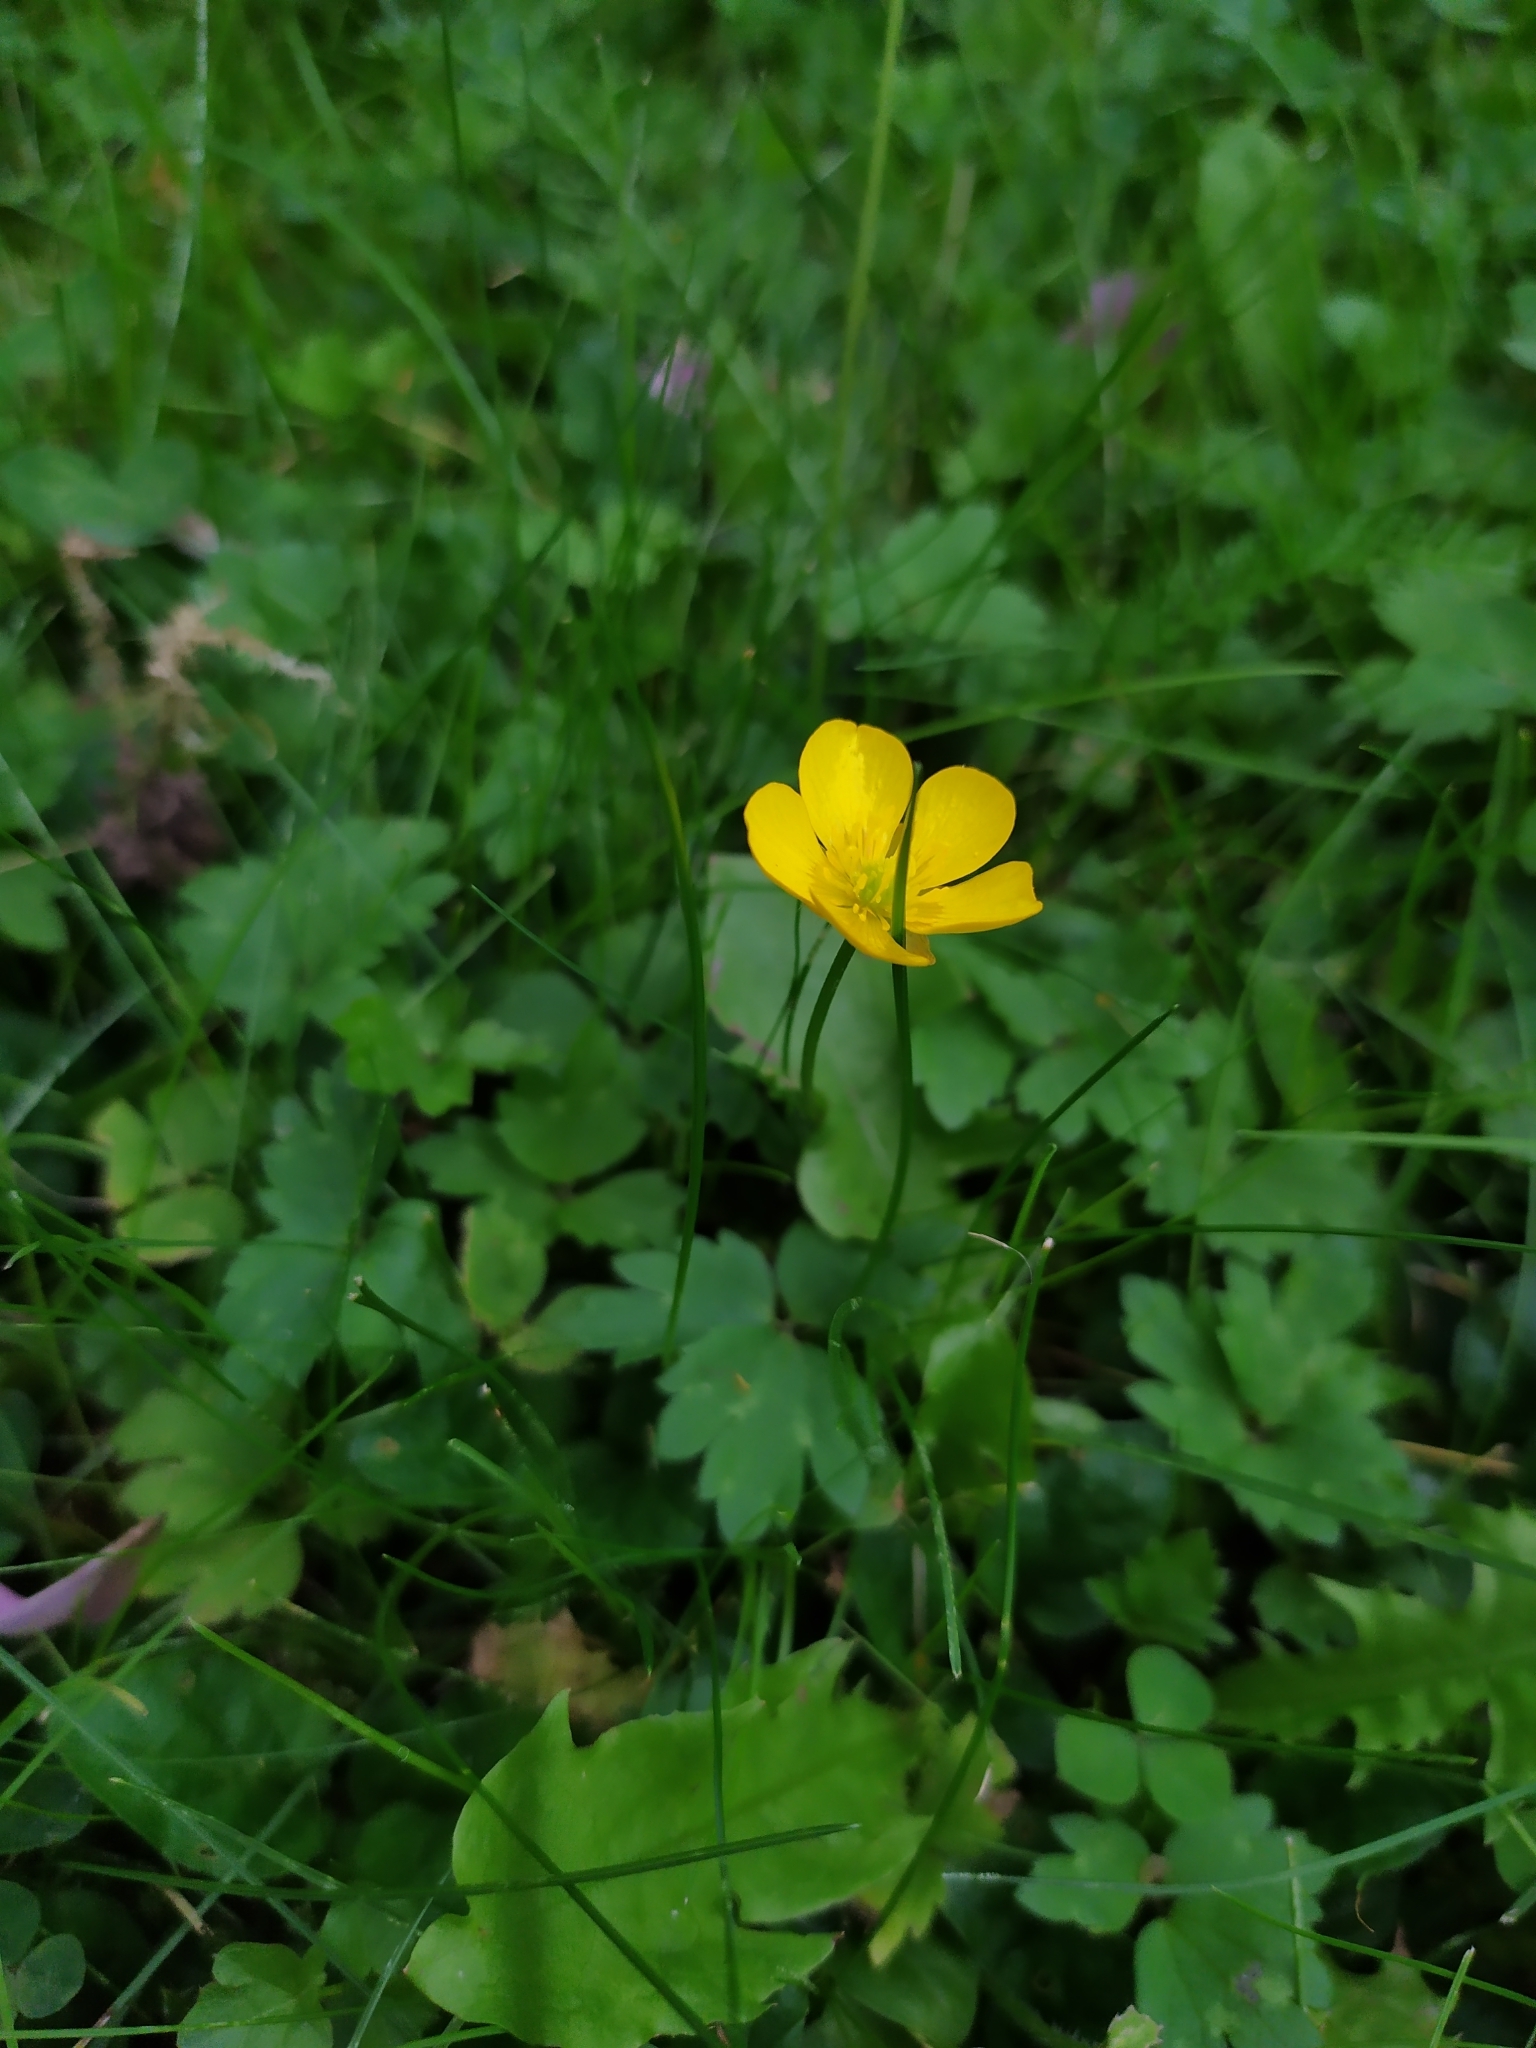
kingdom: Plantae
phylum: Tracheophyta
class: Magnoliopsida
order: Ranunculales
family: Ranunculaceae
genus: Ranunculus
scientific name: Ranunculus repens
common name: Creeping buttercup
